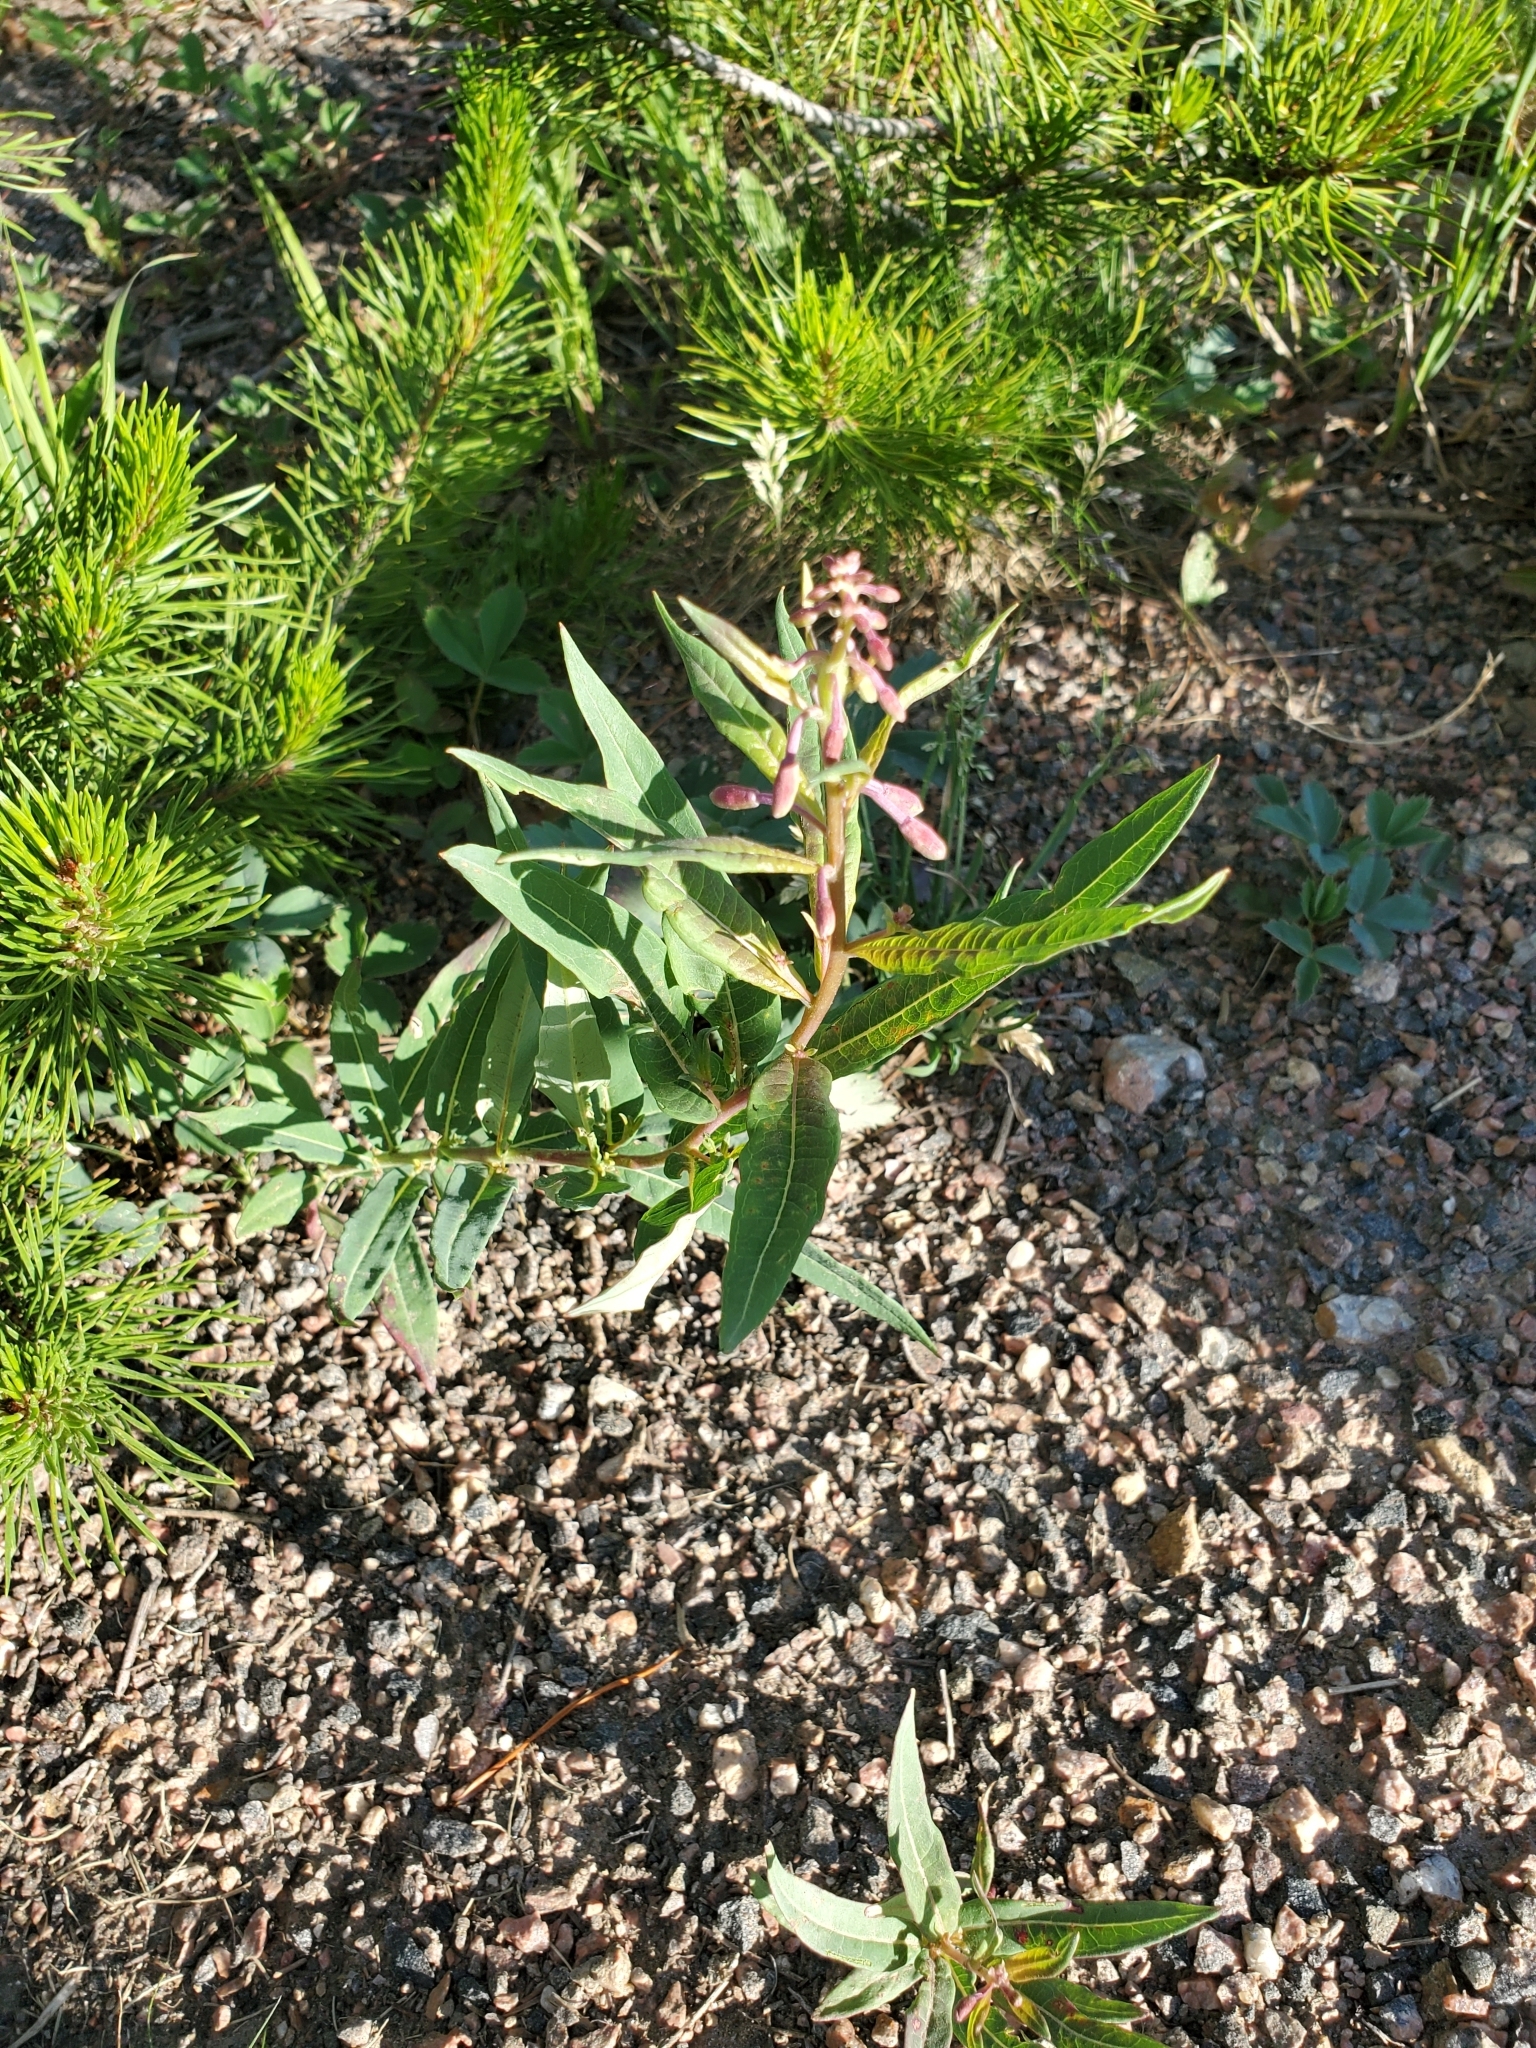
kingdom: Plantae
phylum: Tracheophyta
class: Magnoliopsida
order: Myrtales
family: Onagraceae
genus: Chamaenerion
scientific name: Chamaenerion angustifolium
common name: Fireweed
